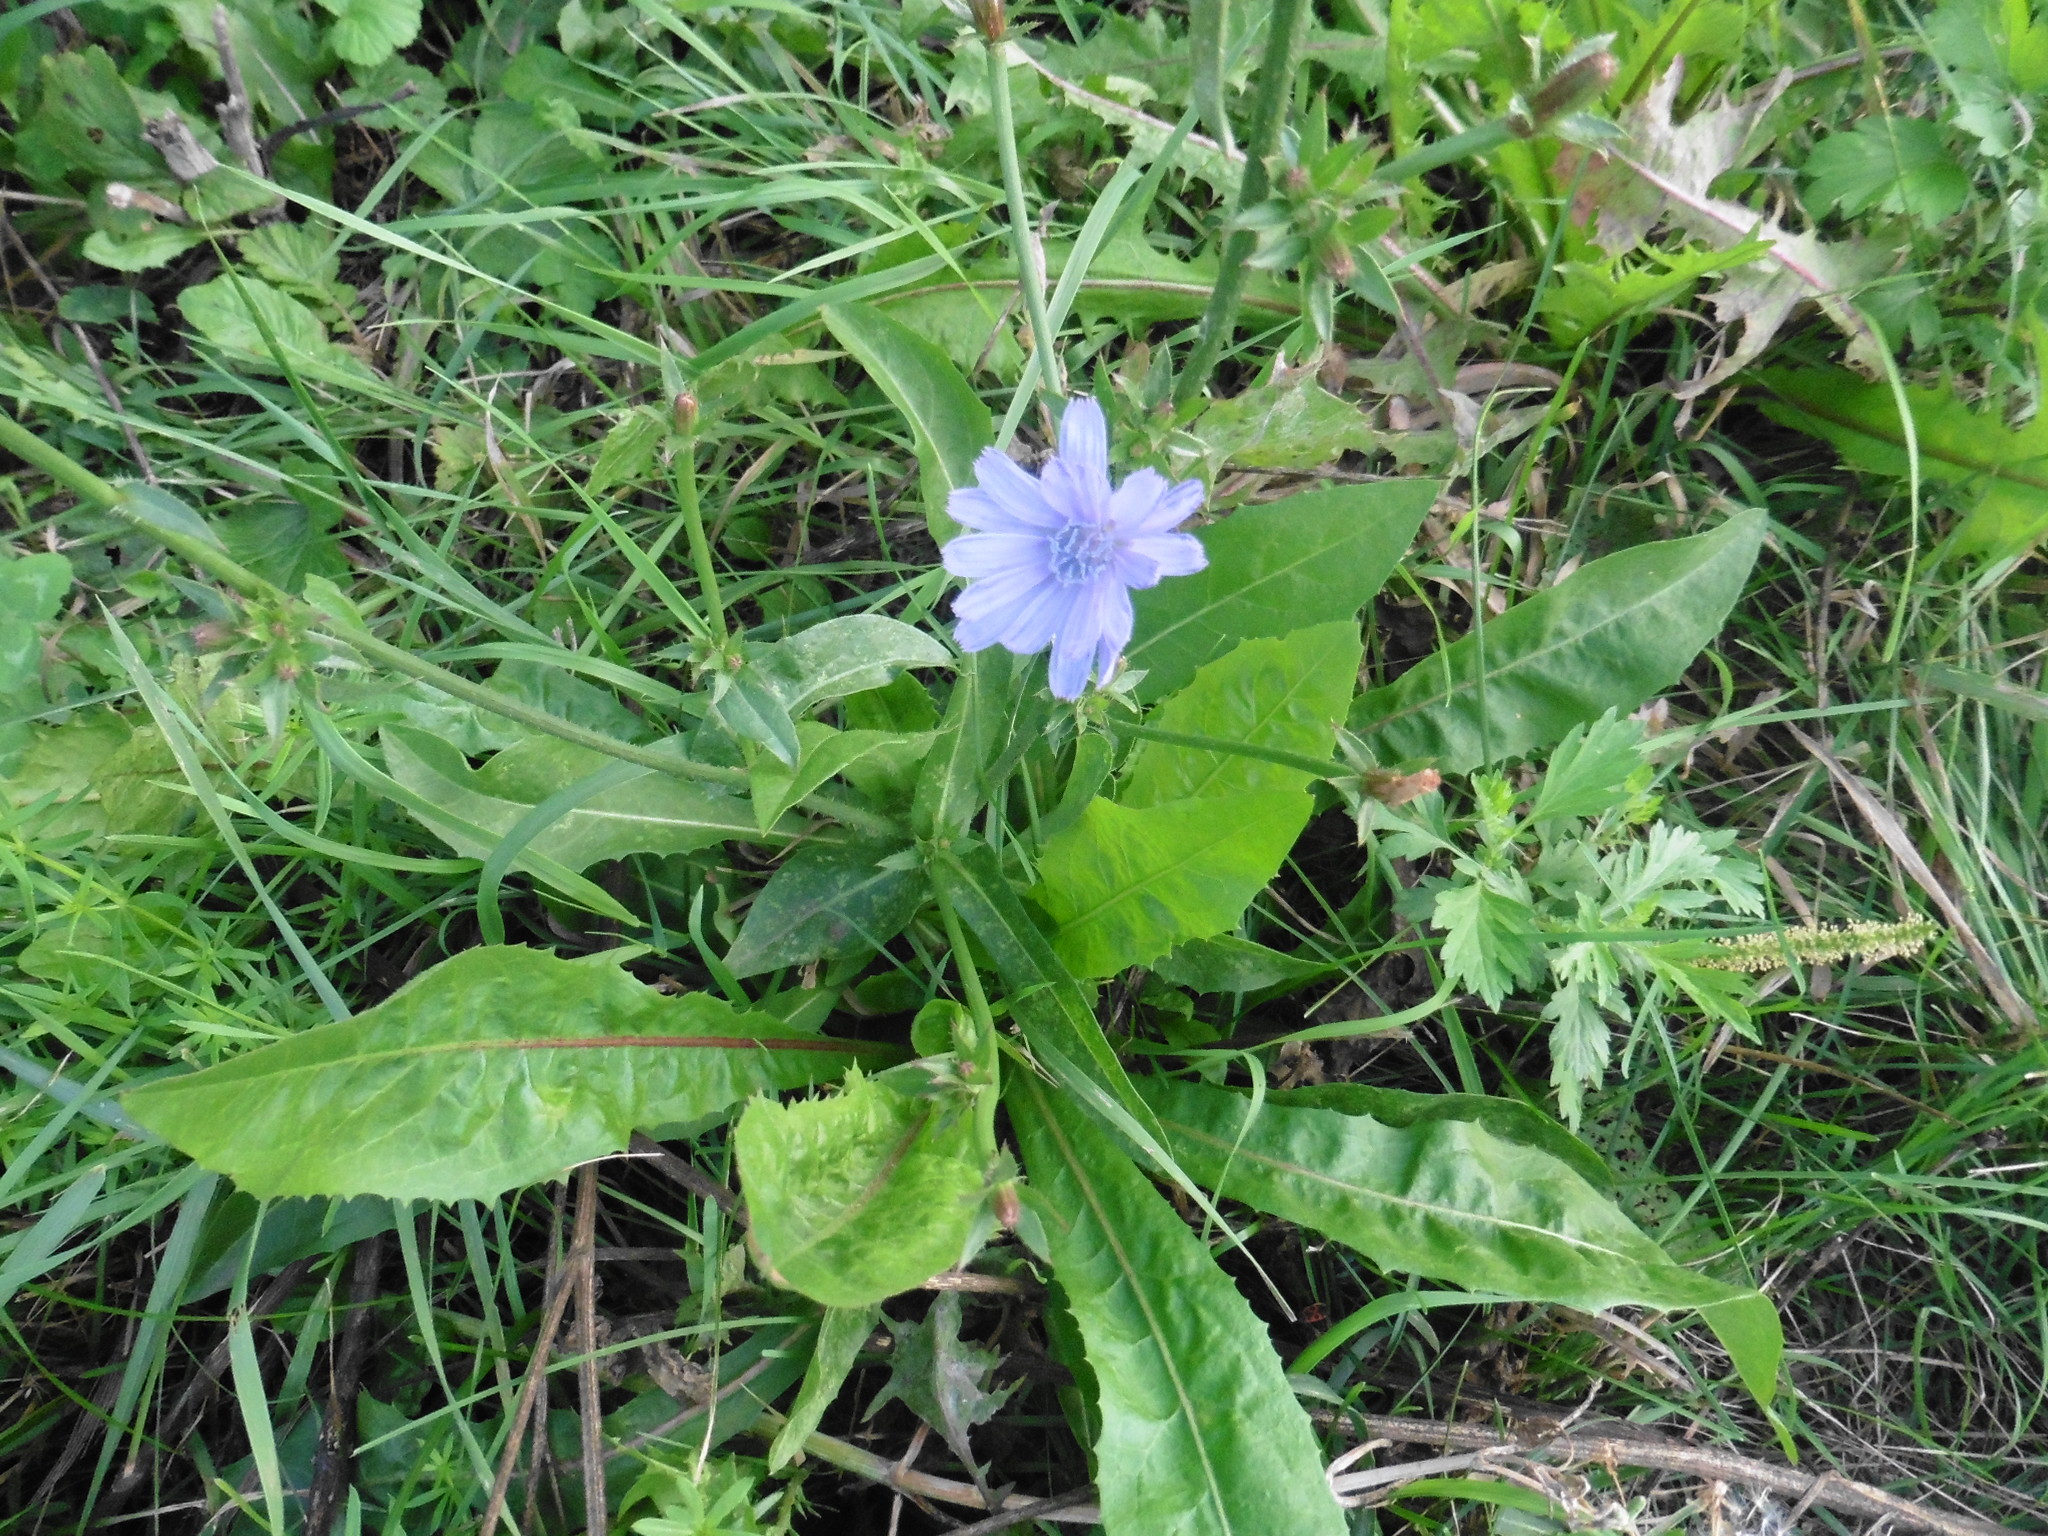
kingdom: Plantae
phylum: Tracheophyta
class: Magnoliopsida
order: Asterales
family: Asteraceae
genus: Cichorium
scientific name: Cichorium intybus
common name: Chicory
